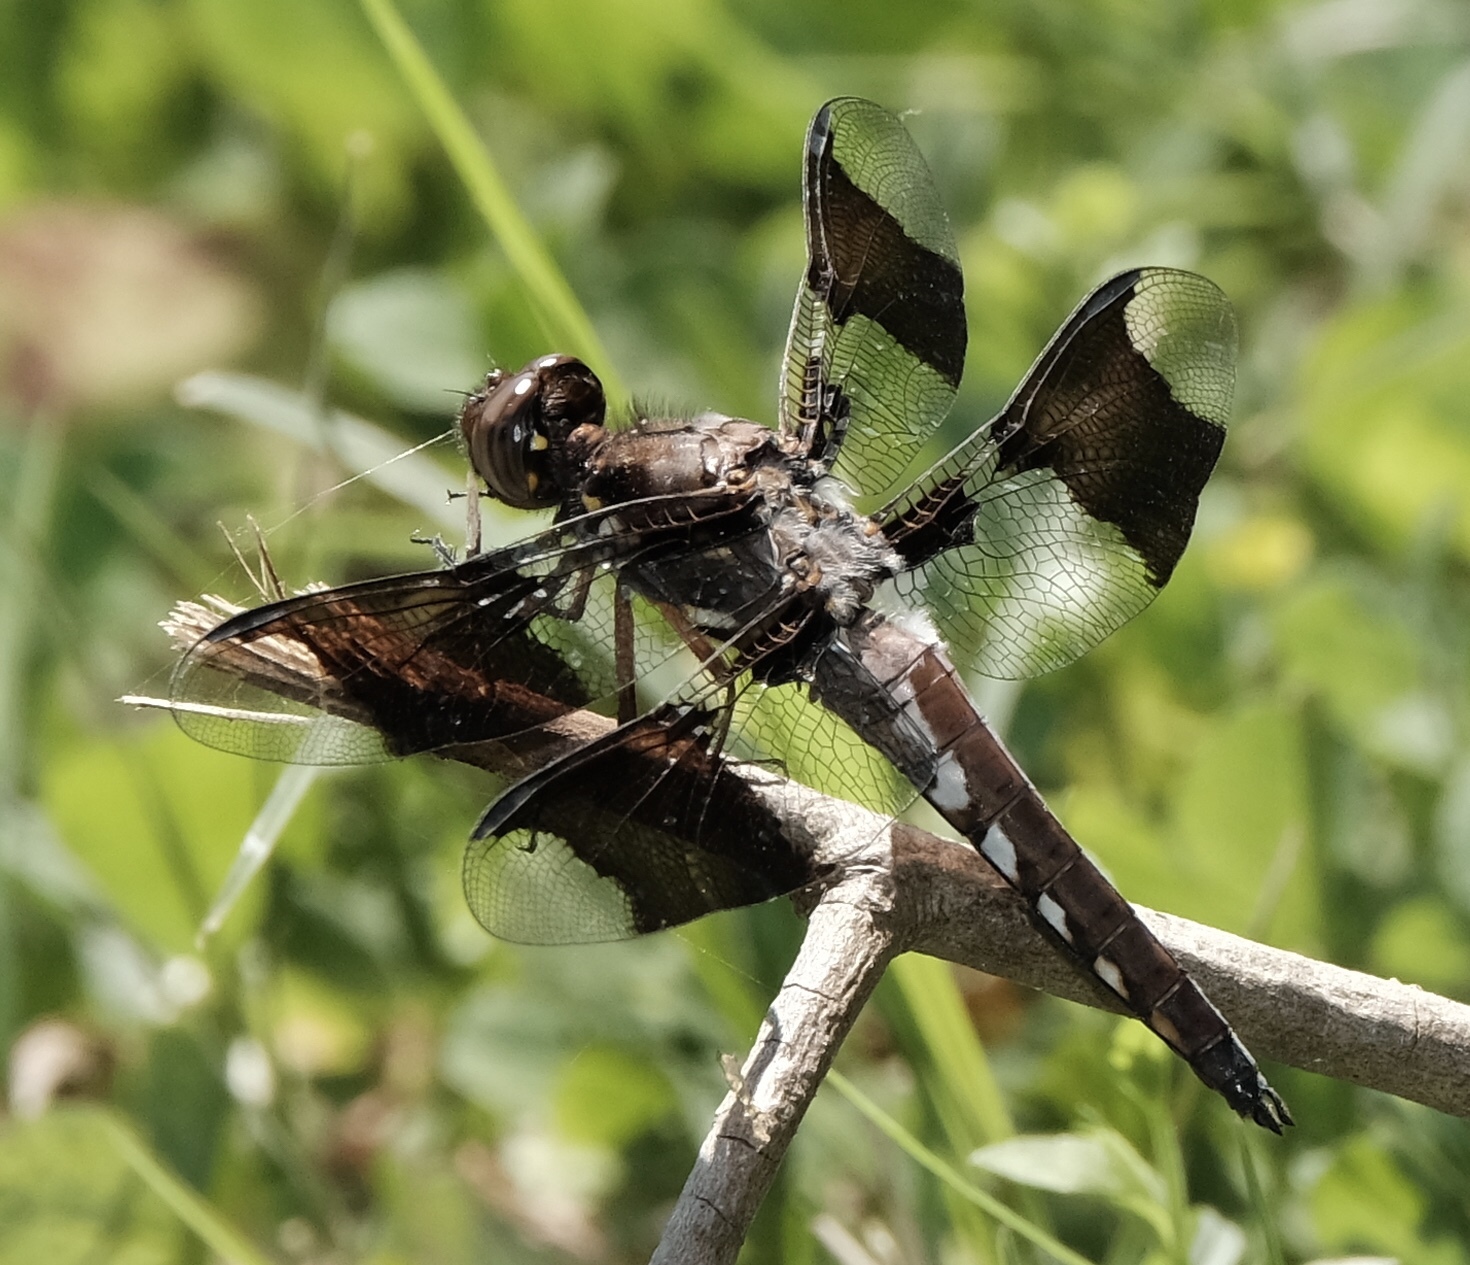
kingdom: Animalia
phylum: Arthropoda
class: Insecta
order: Odonata
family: Libellulidae
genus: Plathemis
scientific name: Plathemis lydia
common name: Common whitetail
